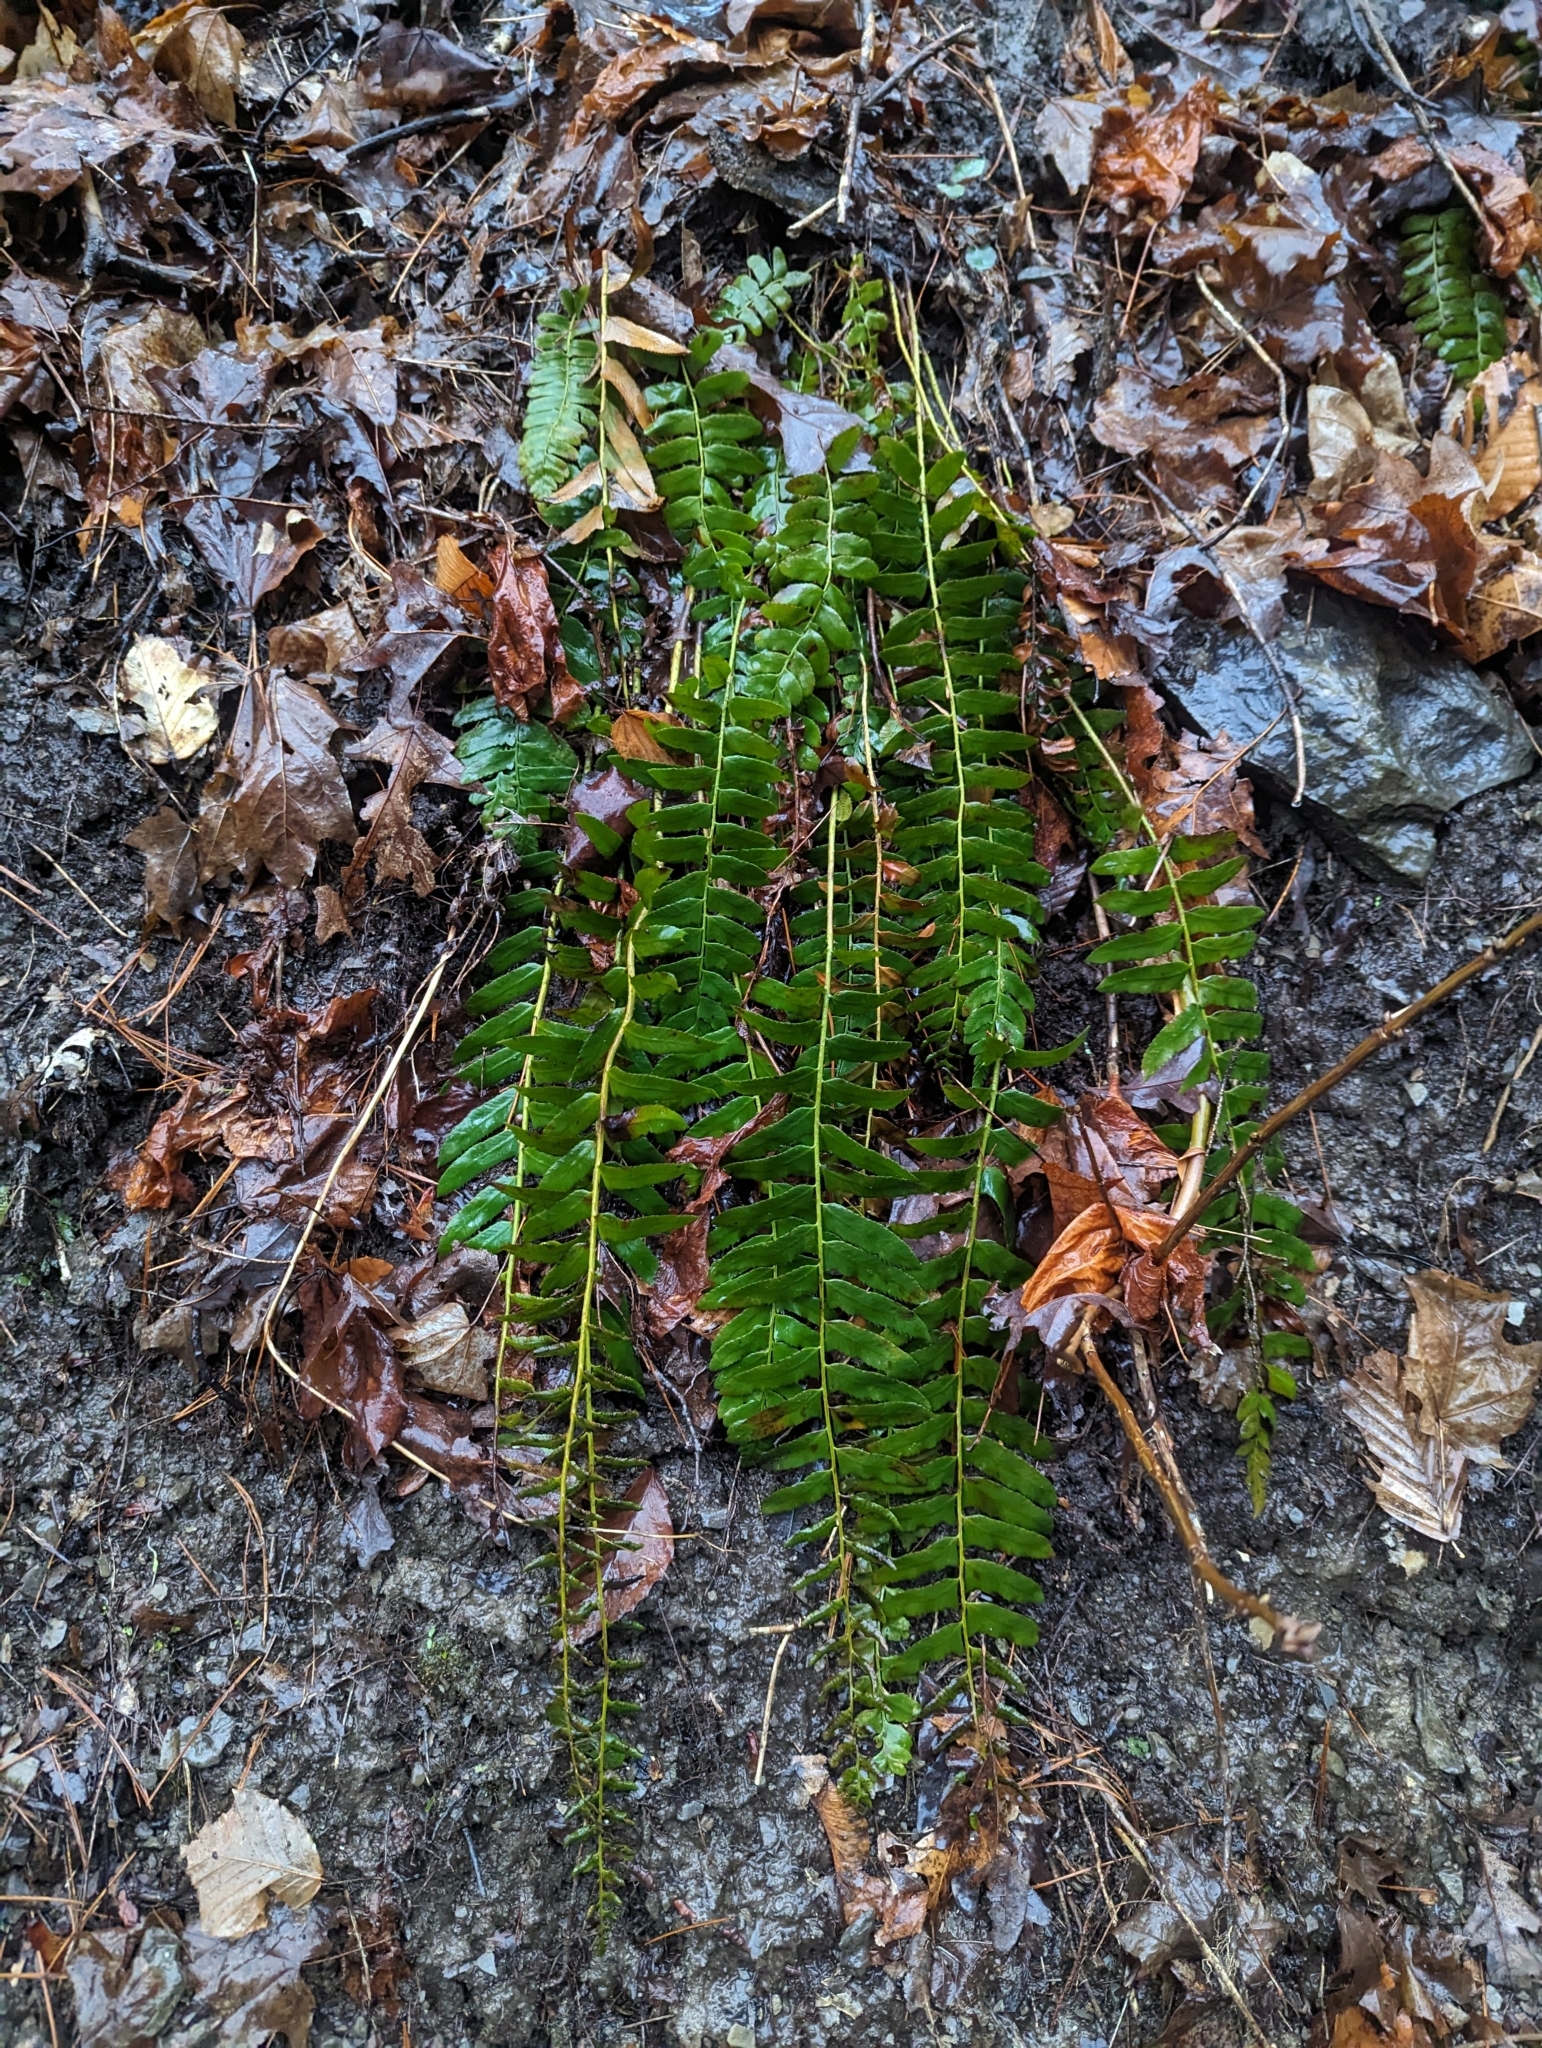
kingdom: Plantae
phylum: Tracheophyta
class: Polypodiopsida
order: Polypodiales
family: Dryopteridaceae
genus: Polystichum
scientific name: Polystichum acrostichoides
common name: Christmas fern
